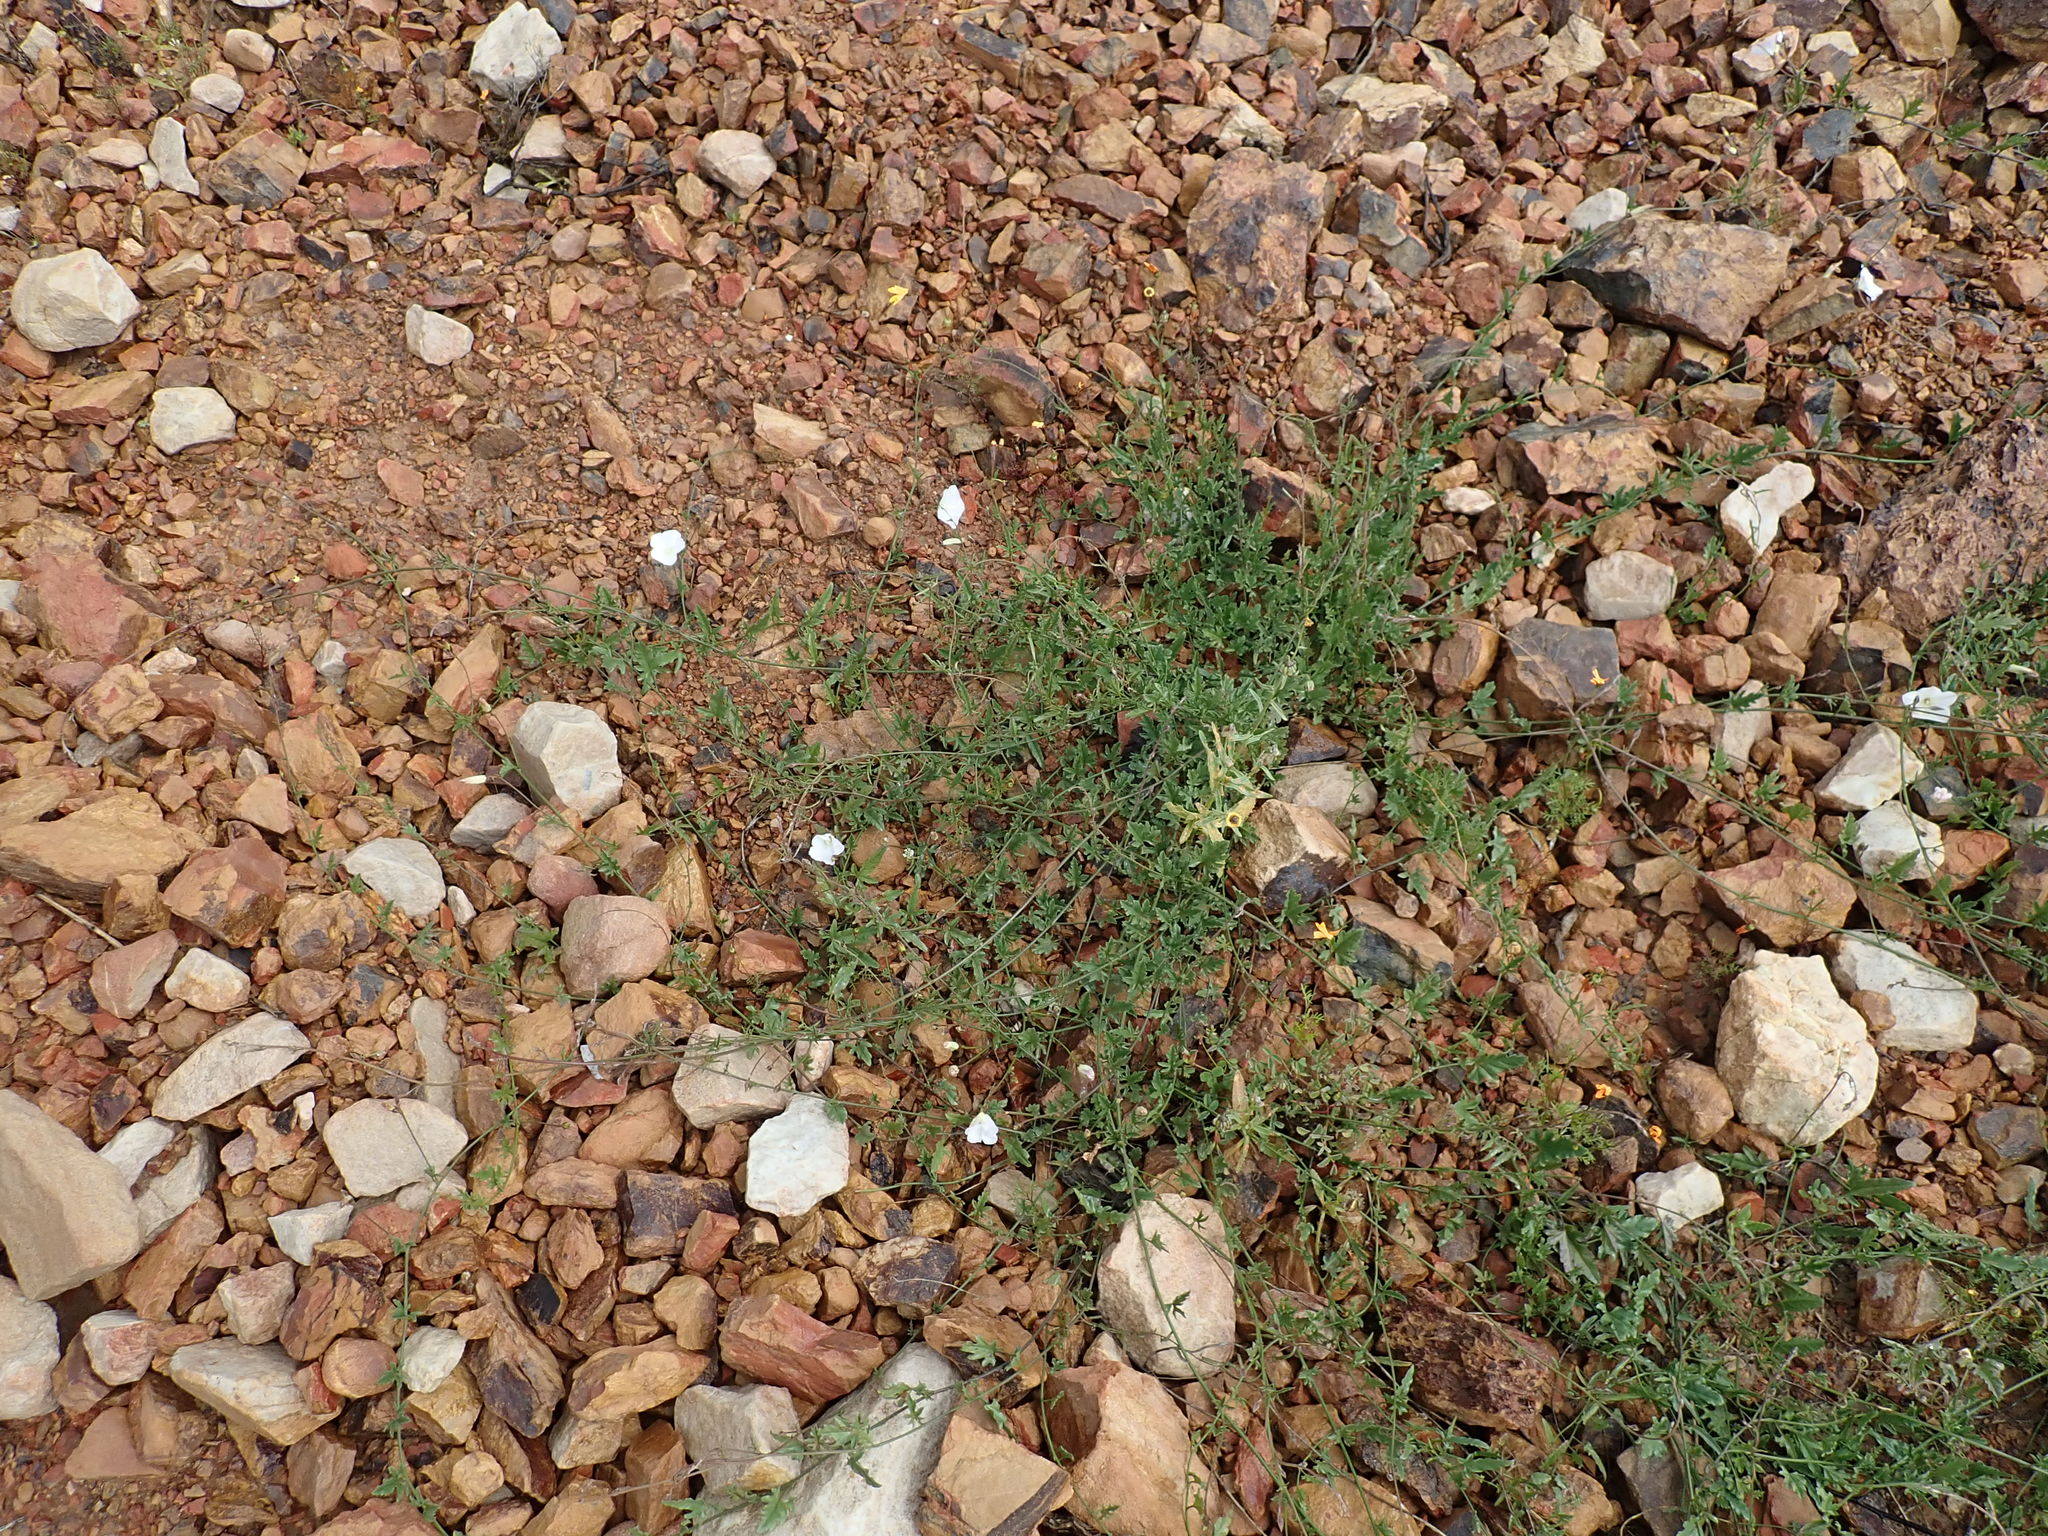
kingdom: Plantae
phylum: Tracheophyta
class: Magnoliopsida
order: Solanales
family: Convolvulaceae
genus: Convolvulus
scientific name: Convolvulus capensis
